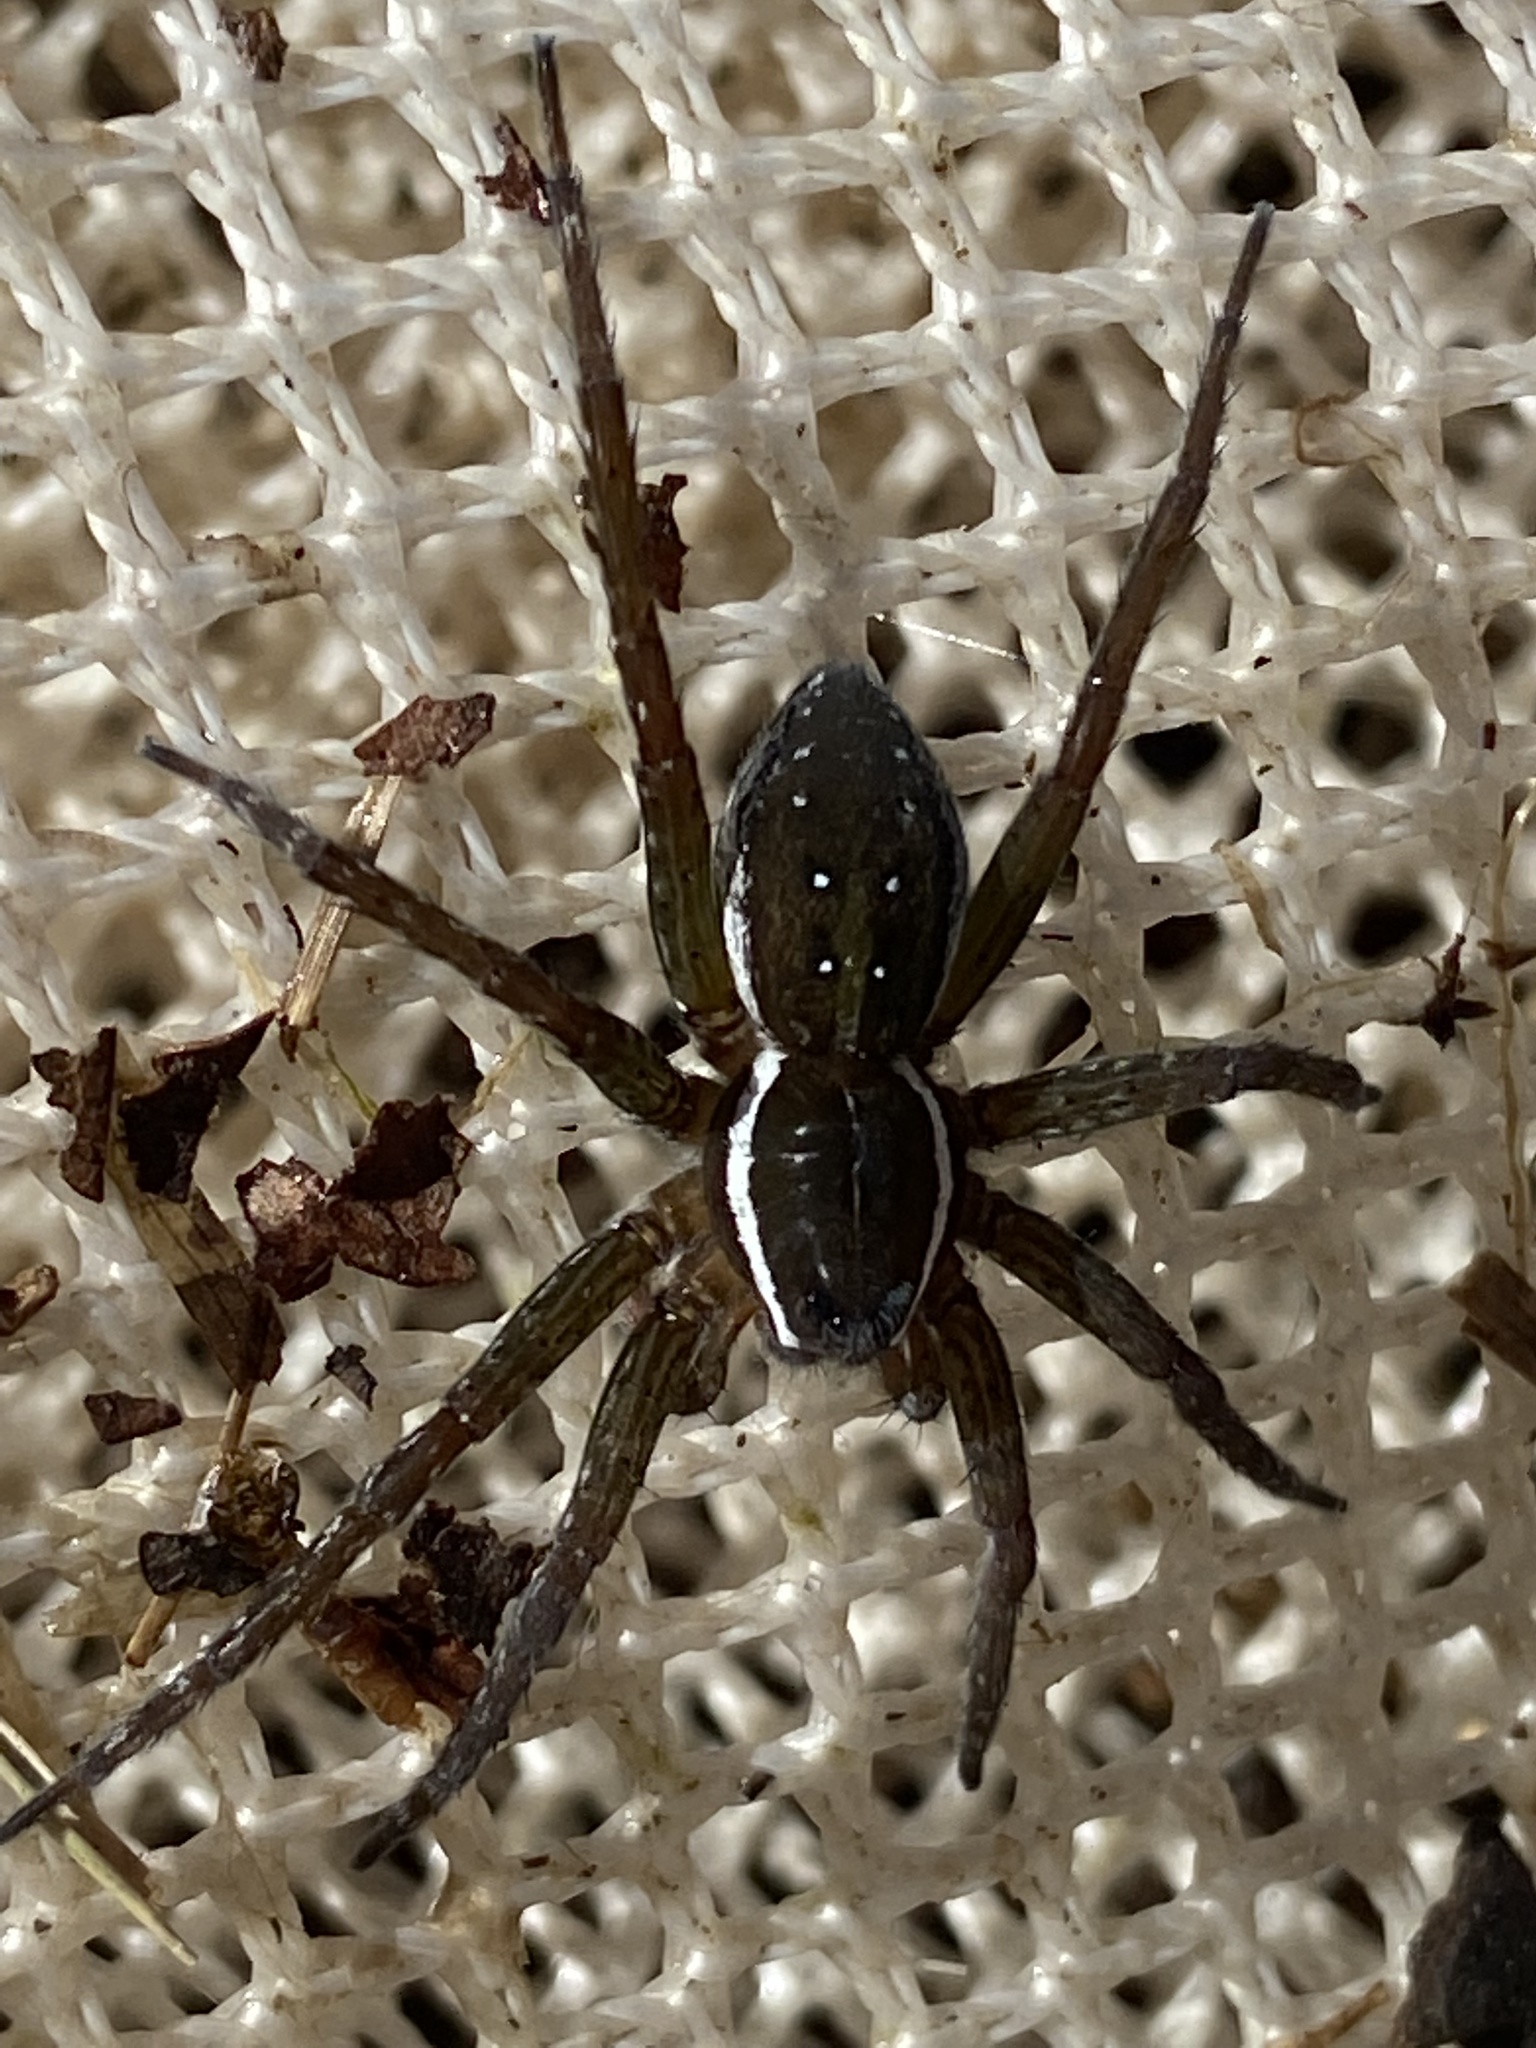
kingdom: Animalia
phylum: Arthropoda
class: Arachnida
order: Araneae
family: Pisauridae
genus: Dolomedes
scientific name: Dolomedes triton
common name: Six-spotted fishing spider
